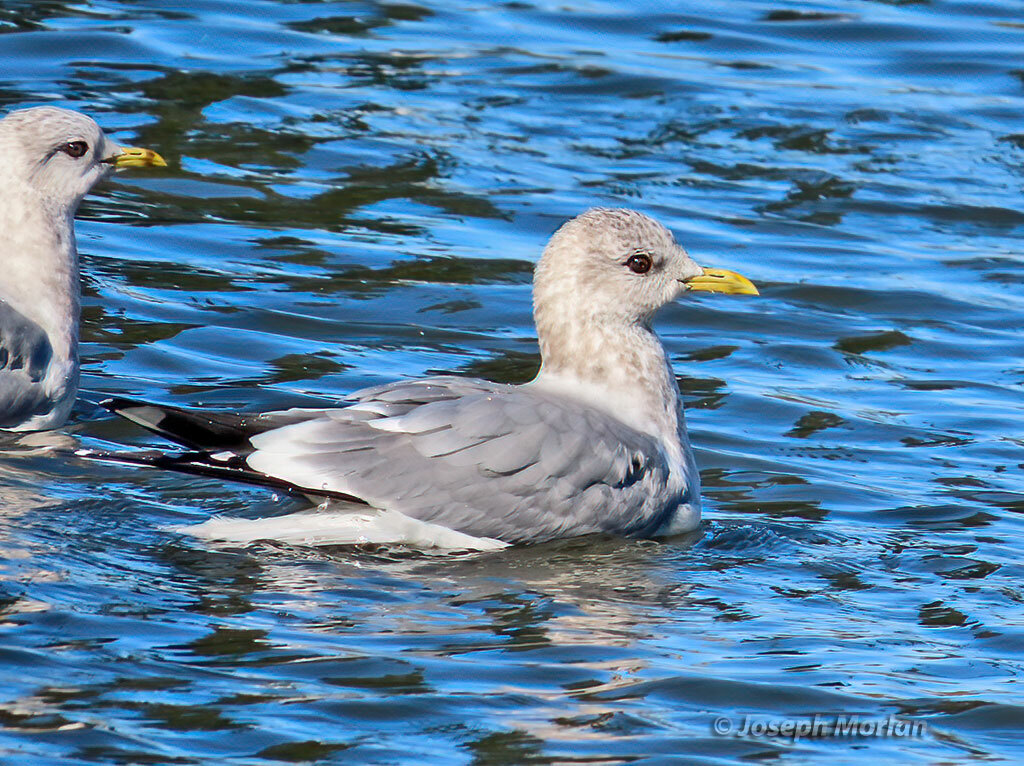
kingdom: Animalia
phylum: Chordata
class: Aves
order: Charadriiformes
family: Laridae
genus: Larus
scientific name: Larus brachyrhynchus
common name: Short-billed gull
